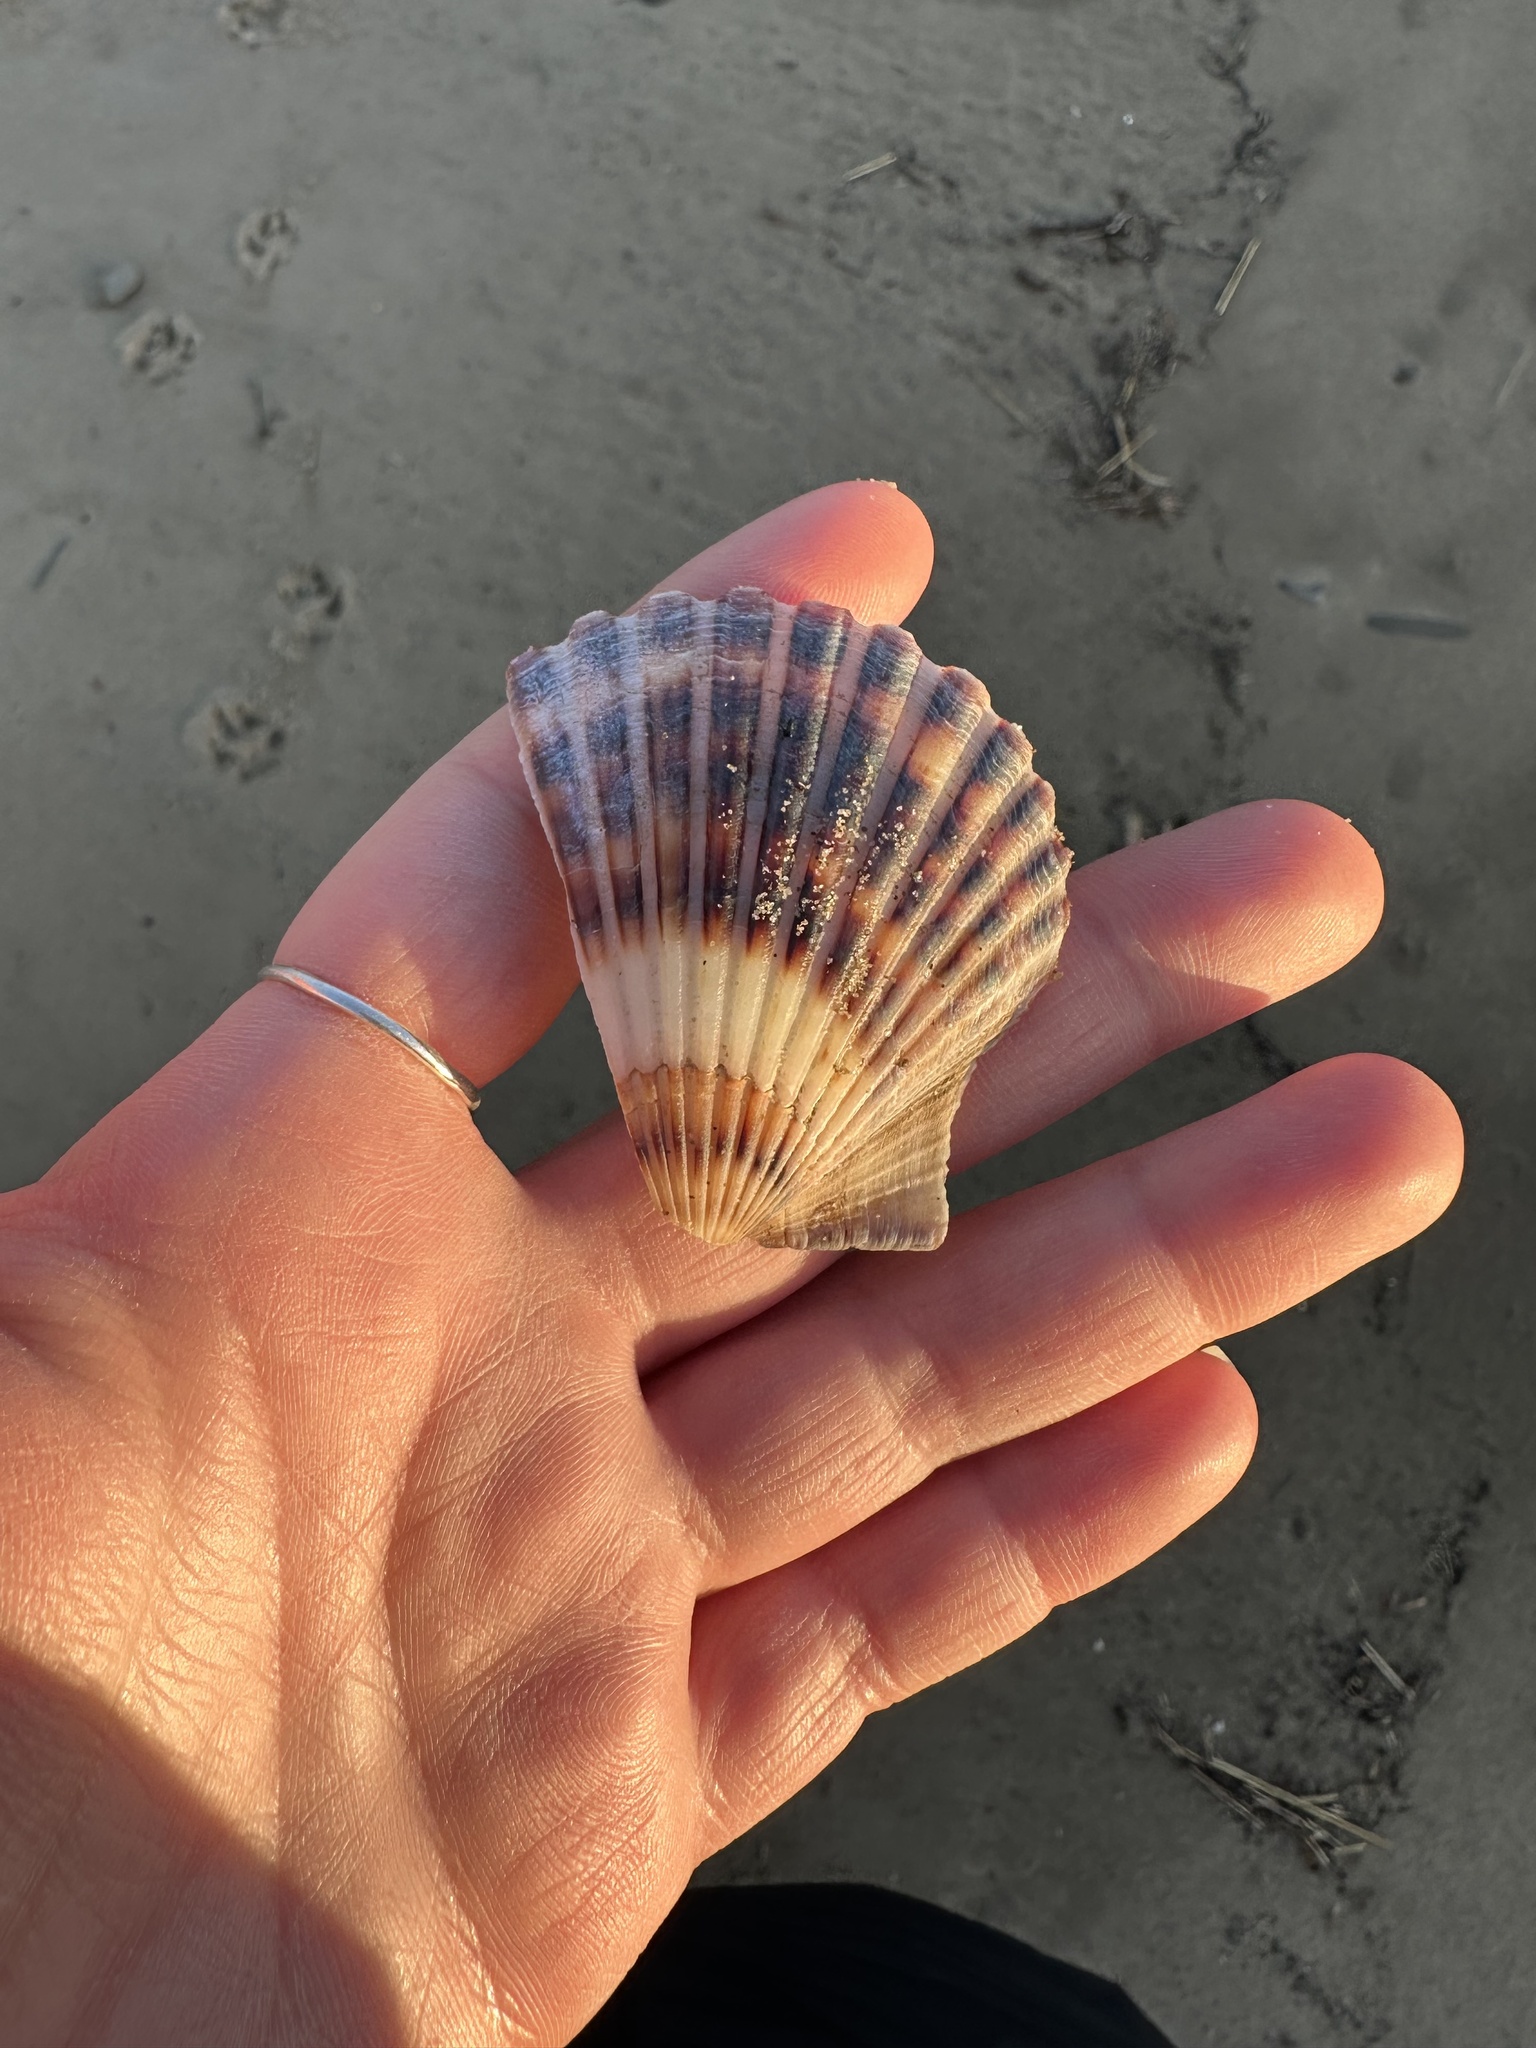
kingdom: Animalia
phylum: Mollusca
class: Bivalvia
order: Pectinida
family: Pectinidae
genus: Argopecten
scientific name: Argopecten irradians
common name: Atlantic bay scallop
